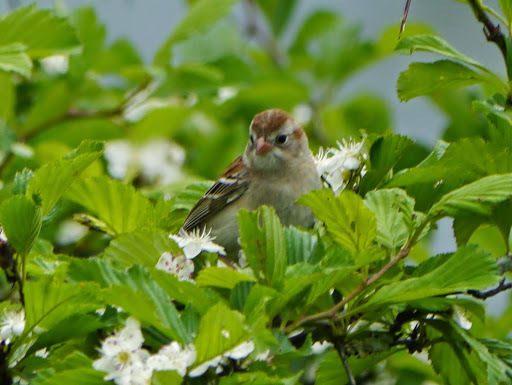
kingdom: Animalia
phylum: Chordata
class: Aves
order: Passeriformes
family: Passerellidae
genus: Spizella
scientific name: Spizella pusilla
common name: Field sparrow
